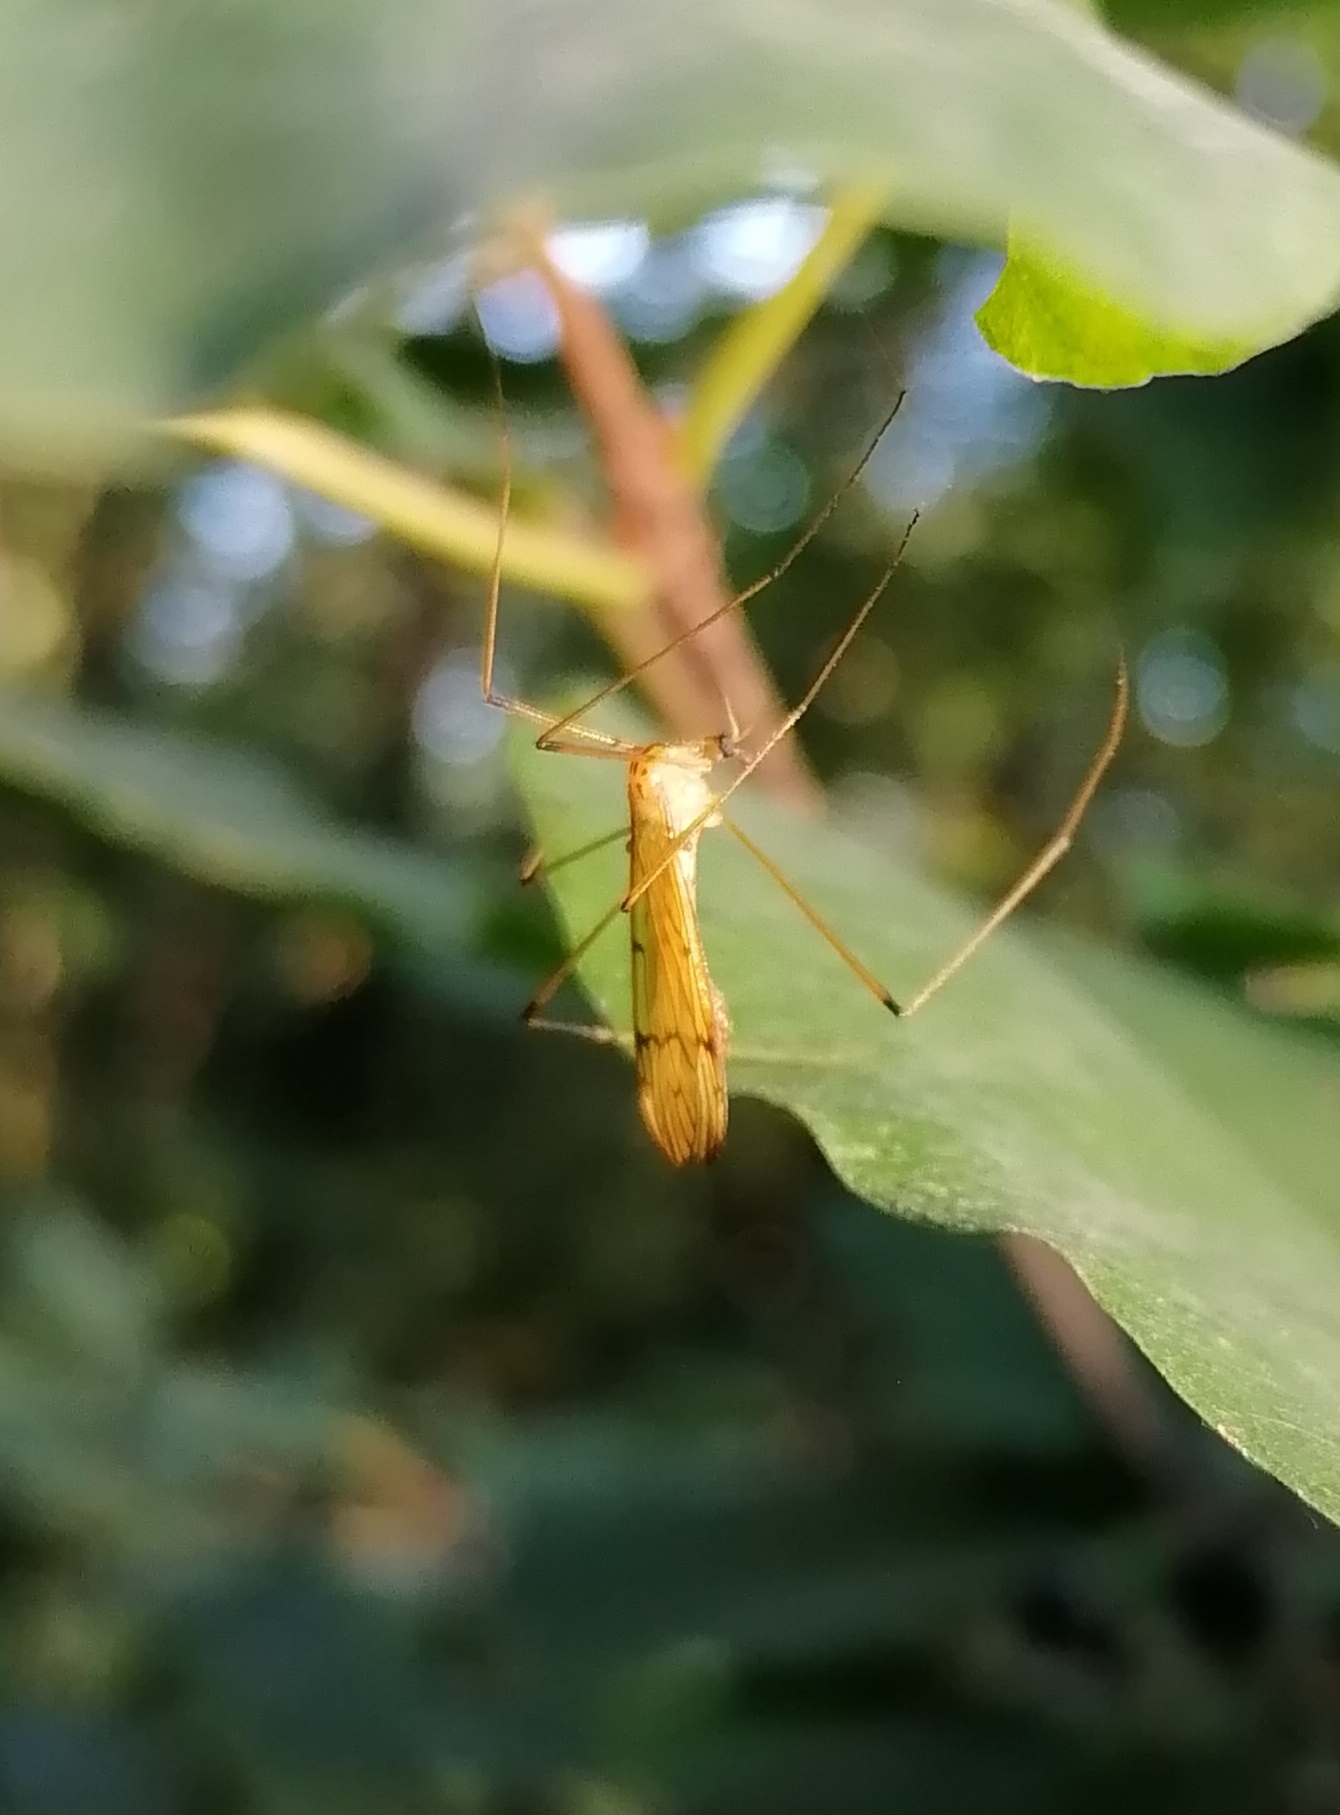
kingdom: Animalia
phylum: Arthropoda
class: Insecta
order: Diptera
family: Limoniidae
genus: Metalimnobia
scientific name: Metalimnobia bifasciata
